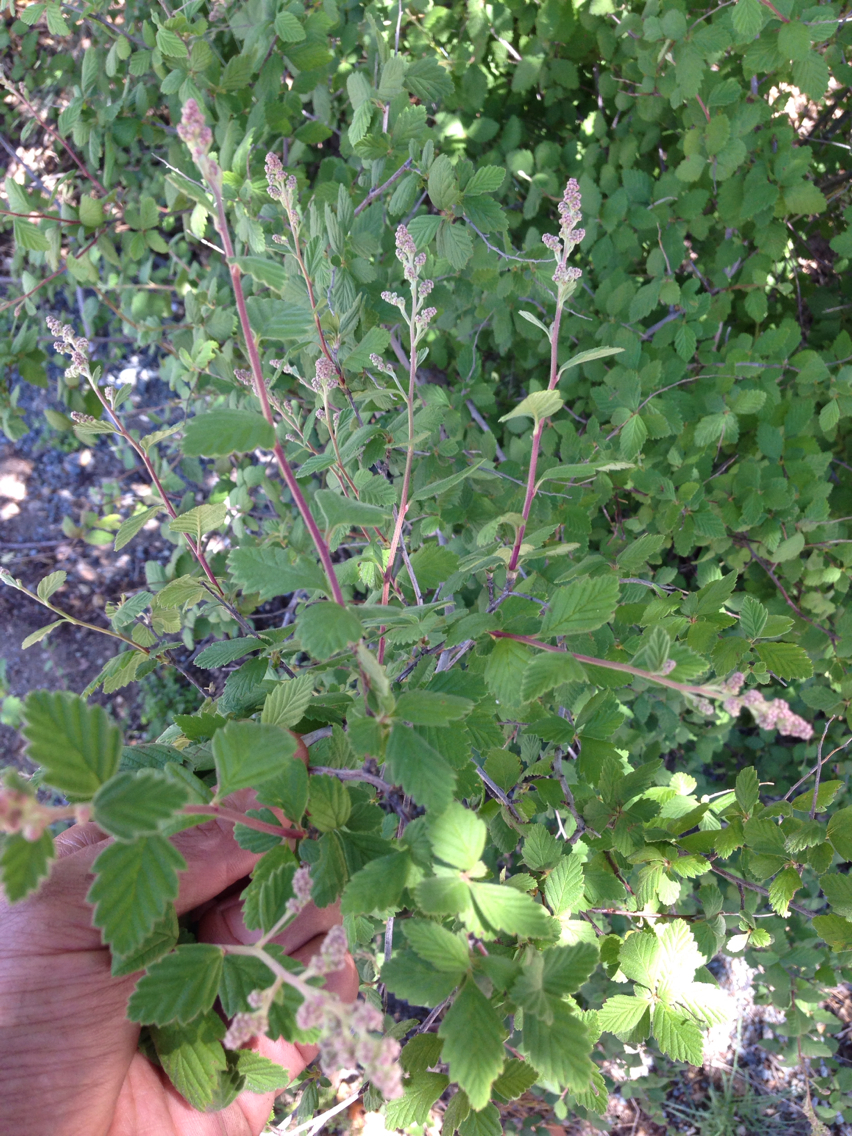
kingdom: Plantae
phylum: Tracheophyta
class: Magnoliopsida
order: Rosales
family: Rosaceae
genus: Holodiscus
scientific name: Holodiscus discolor
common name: Oceanspray
